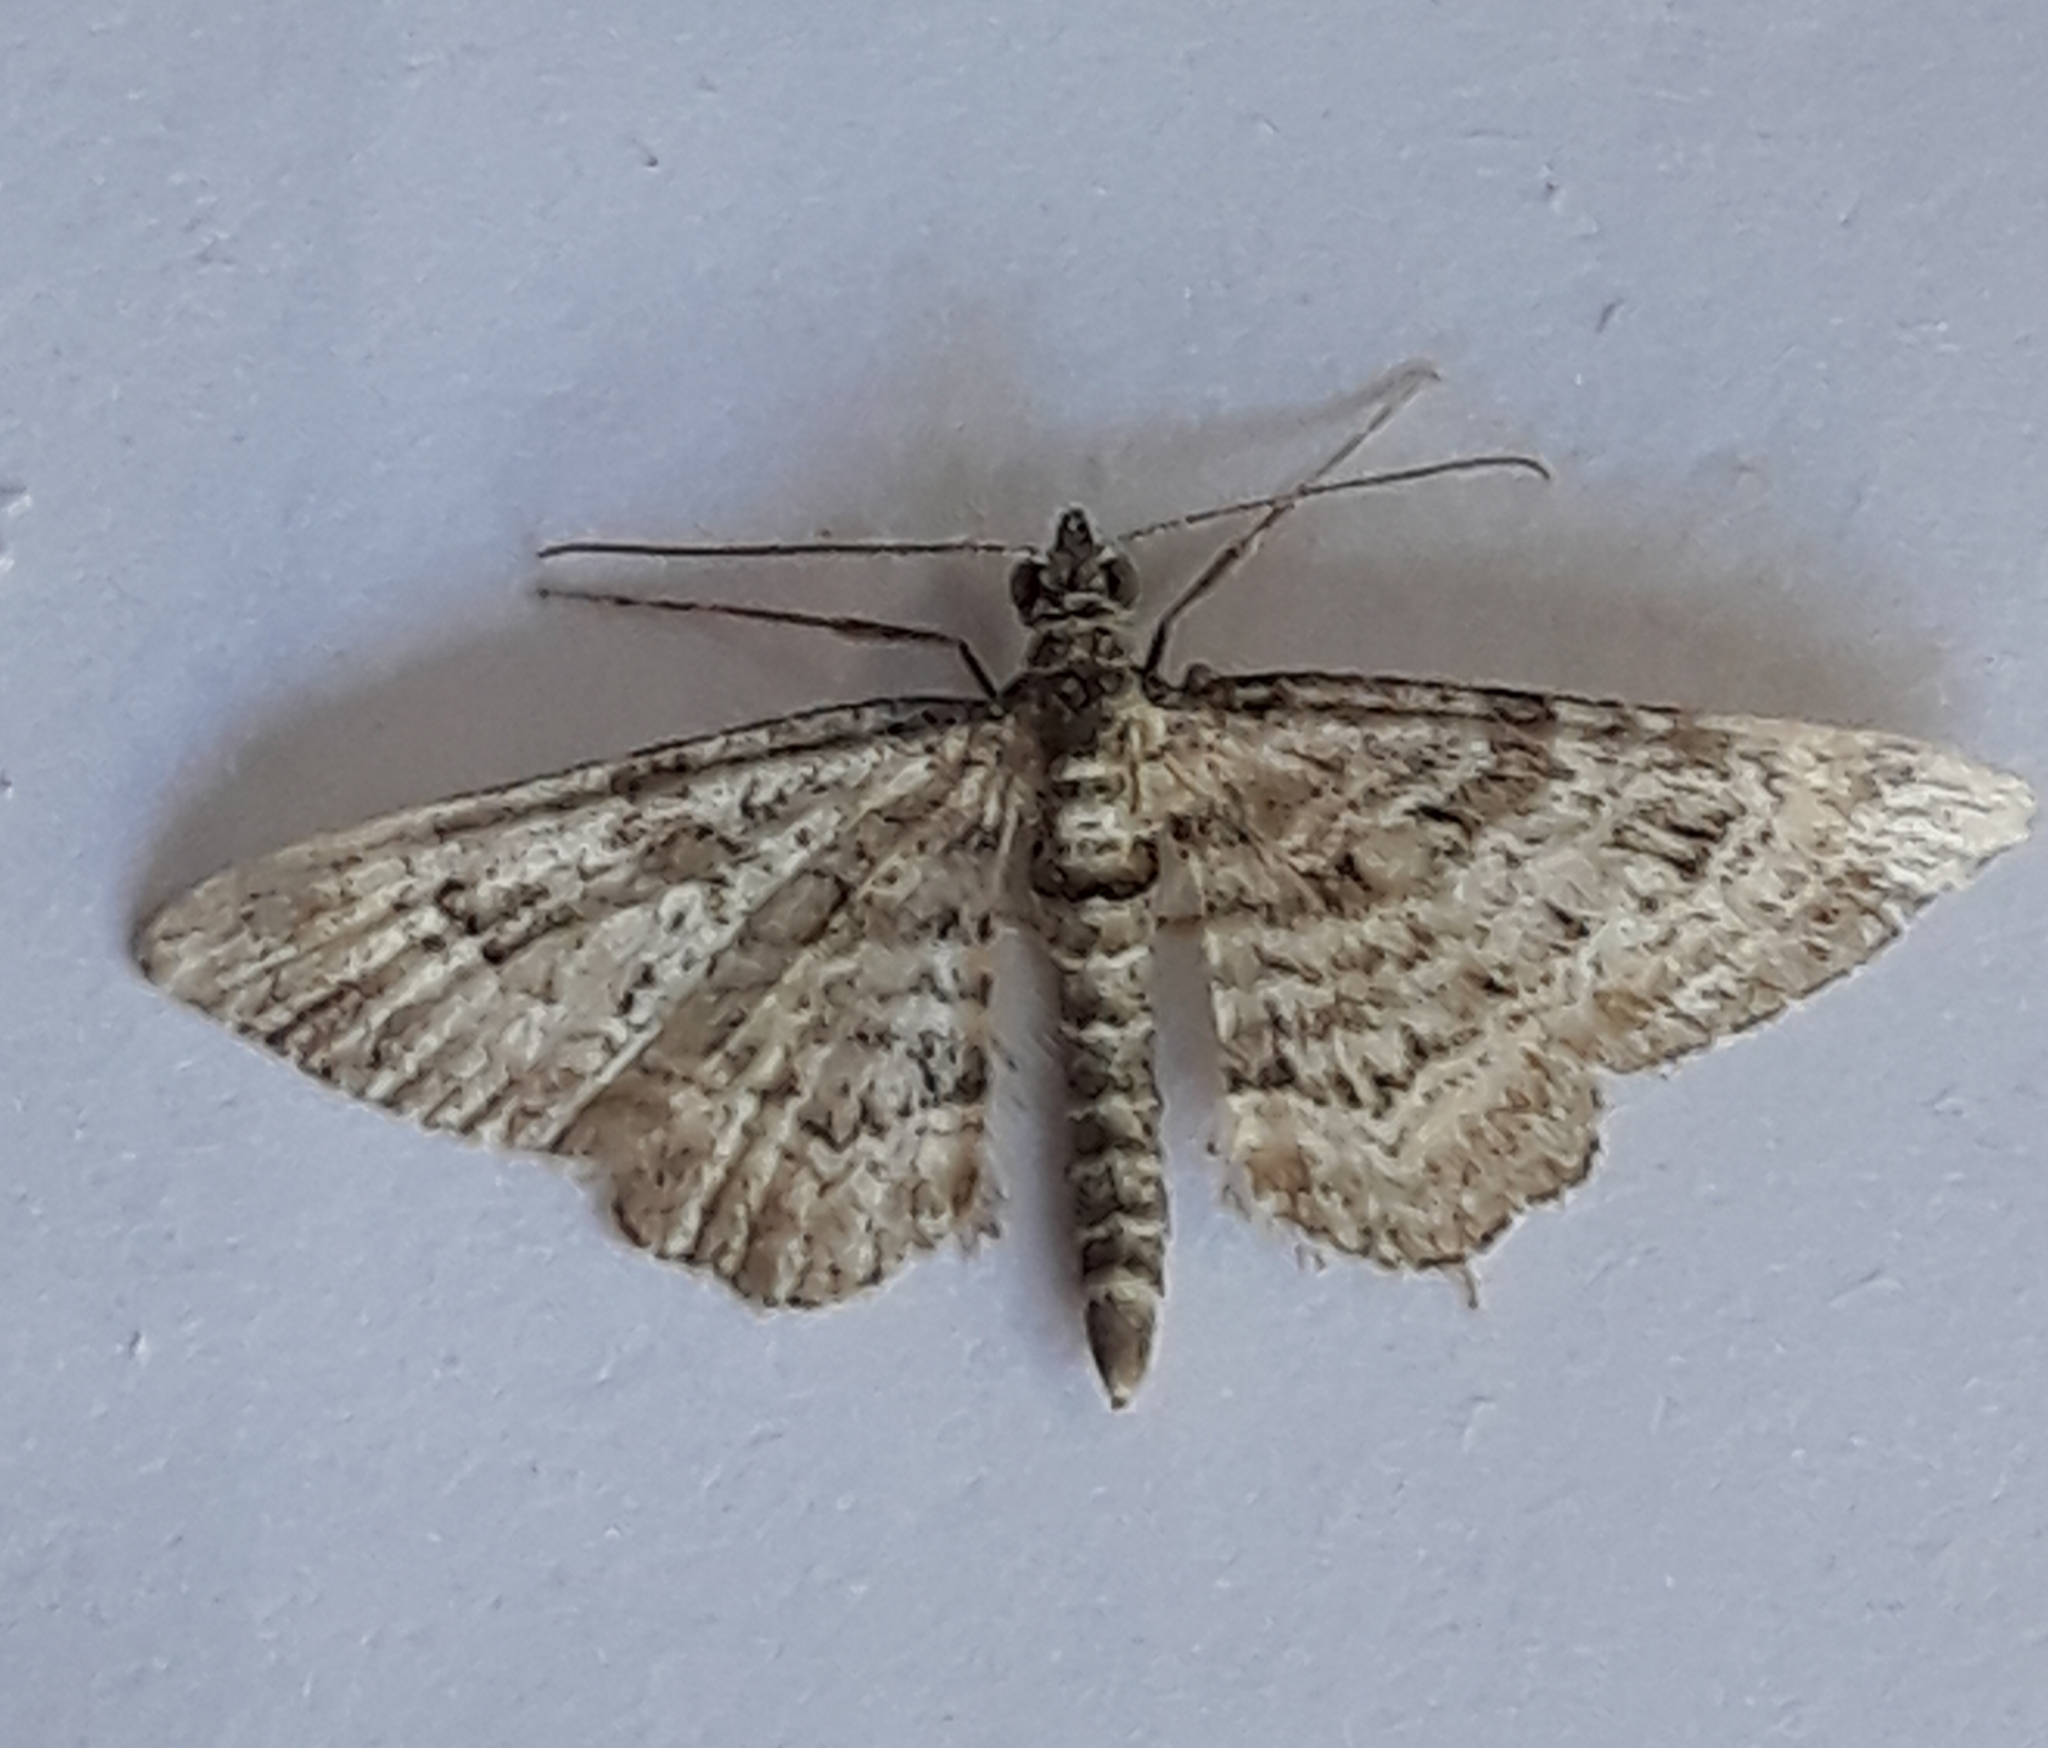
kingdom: Animalia
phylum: Arthropoda
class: Insecta
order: Lepidoptera
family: Geometridae
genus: Gymnoscelis
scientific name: Gymnoscelis rufifasciata
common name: Double-striped pug
